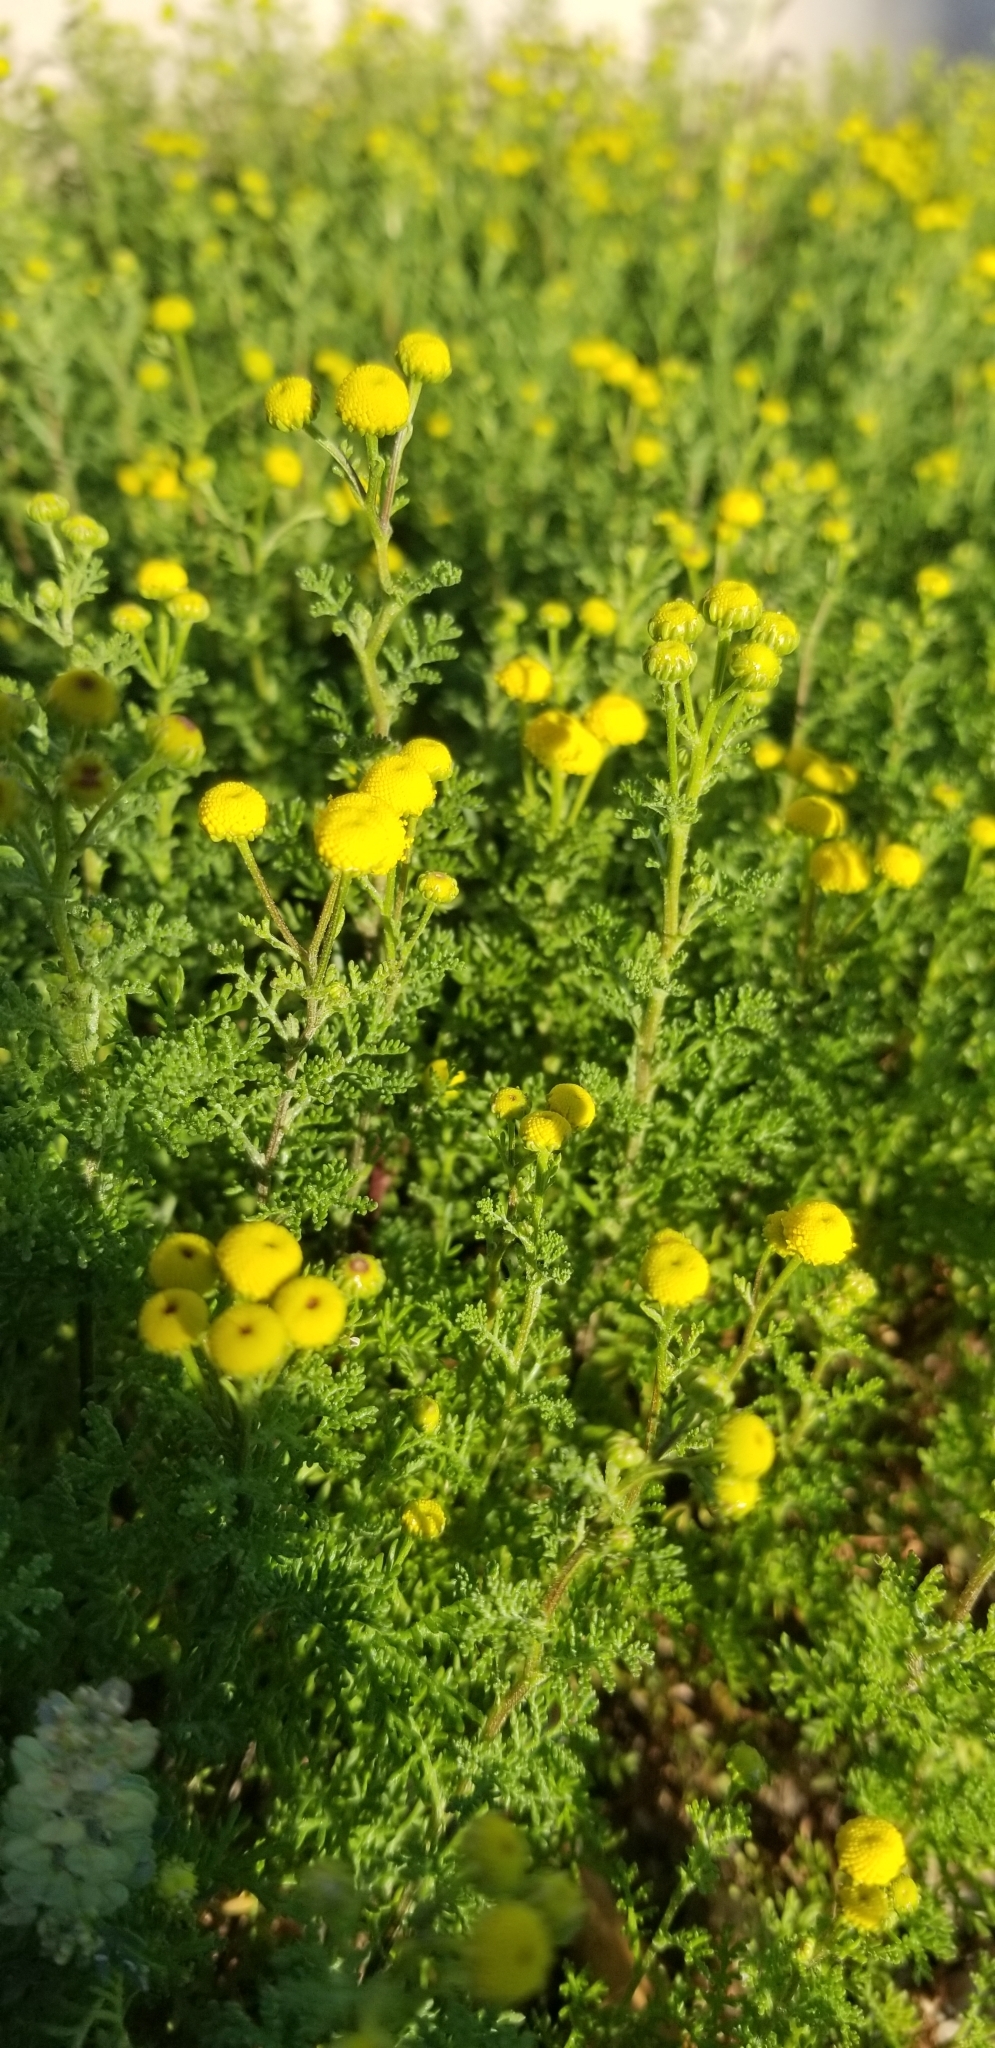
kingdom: Plantae
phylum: Tracheophyta
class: Magnoliopsida
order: Asterales
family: Asteraceae
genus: Oncosiphon
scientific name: Oncosiphon pilulifer
